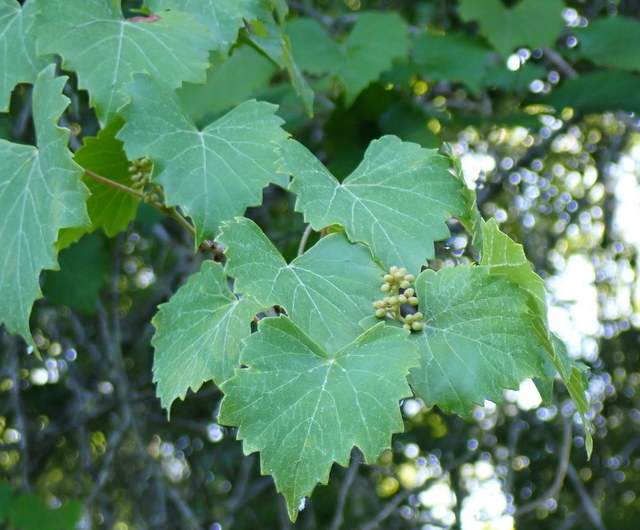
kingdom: Plantae
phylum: Tracheophyta
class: Magnoliopsida
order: Vitales
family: Vitaceae
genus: Vitis
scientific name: Vitis rotundifolia
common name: Muscadine grape
